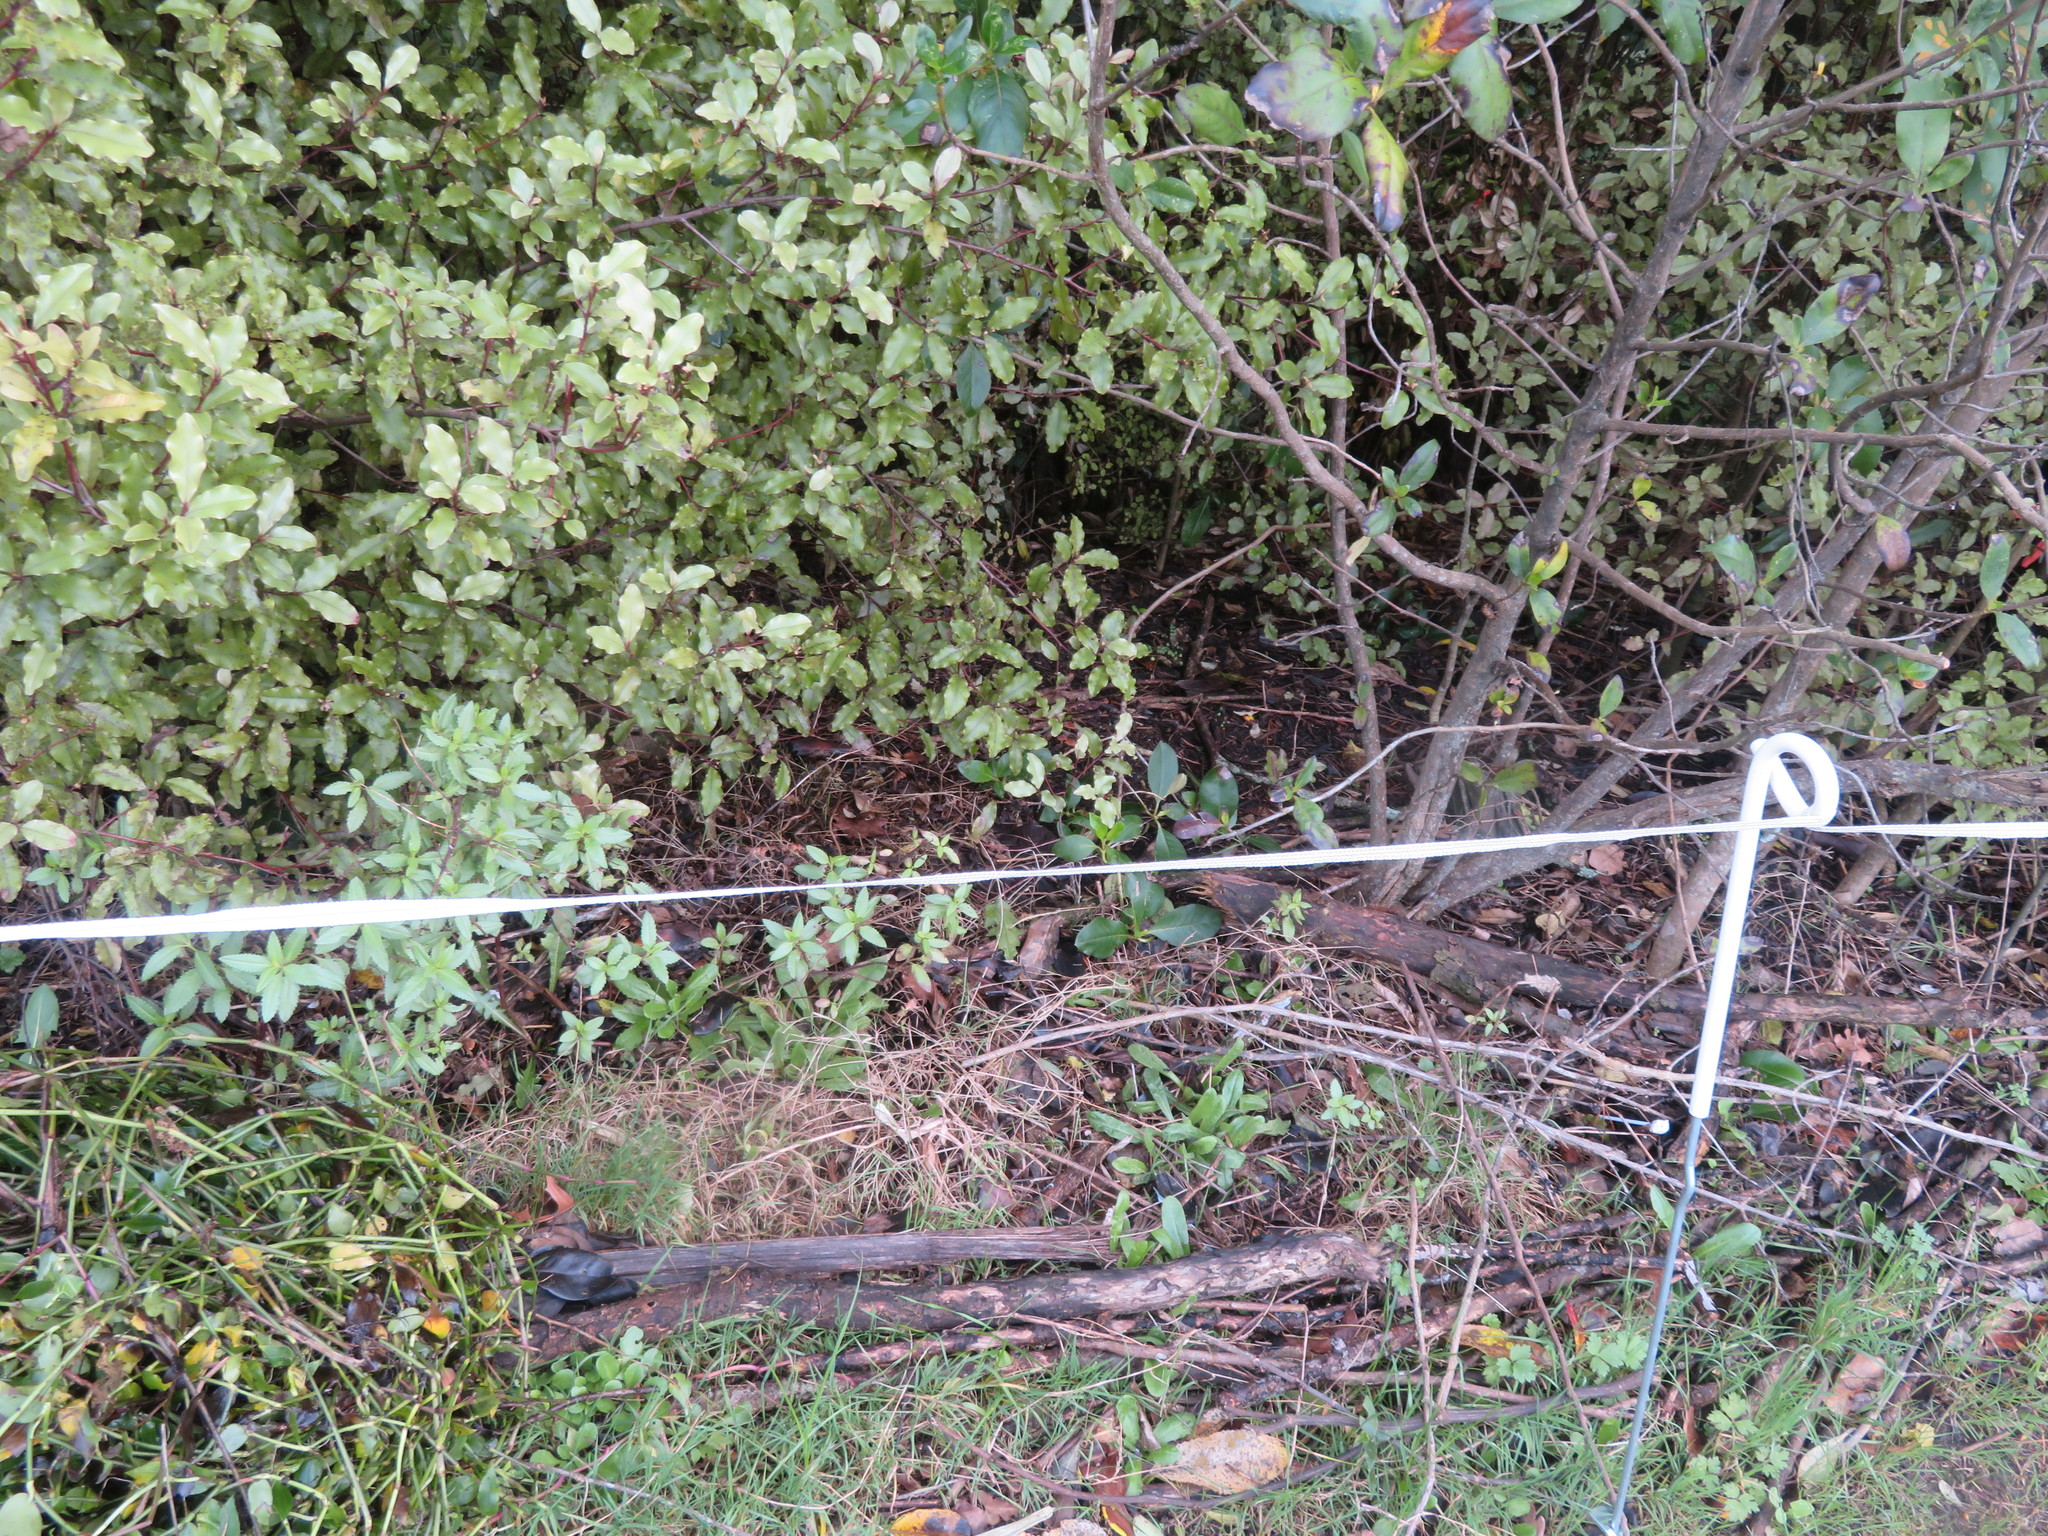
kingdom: Plantae
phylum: Tracheophyta
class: Magnoliopsida
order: Ericales
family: Primulaceae
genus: Myrsine
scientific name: Myrsine australis
